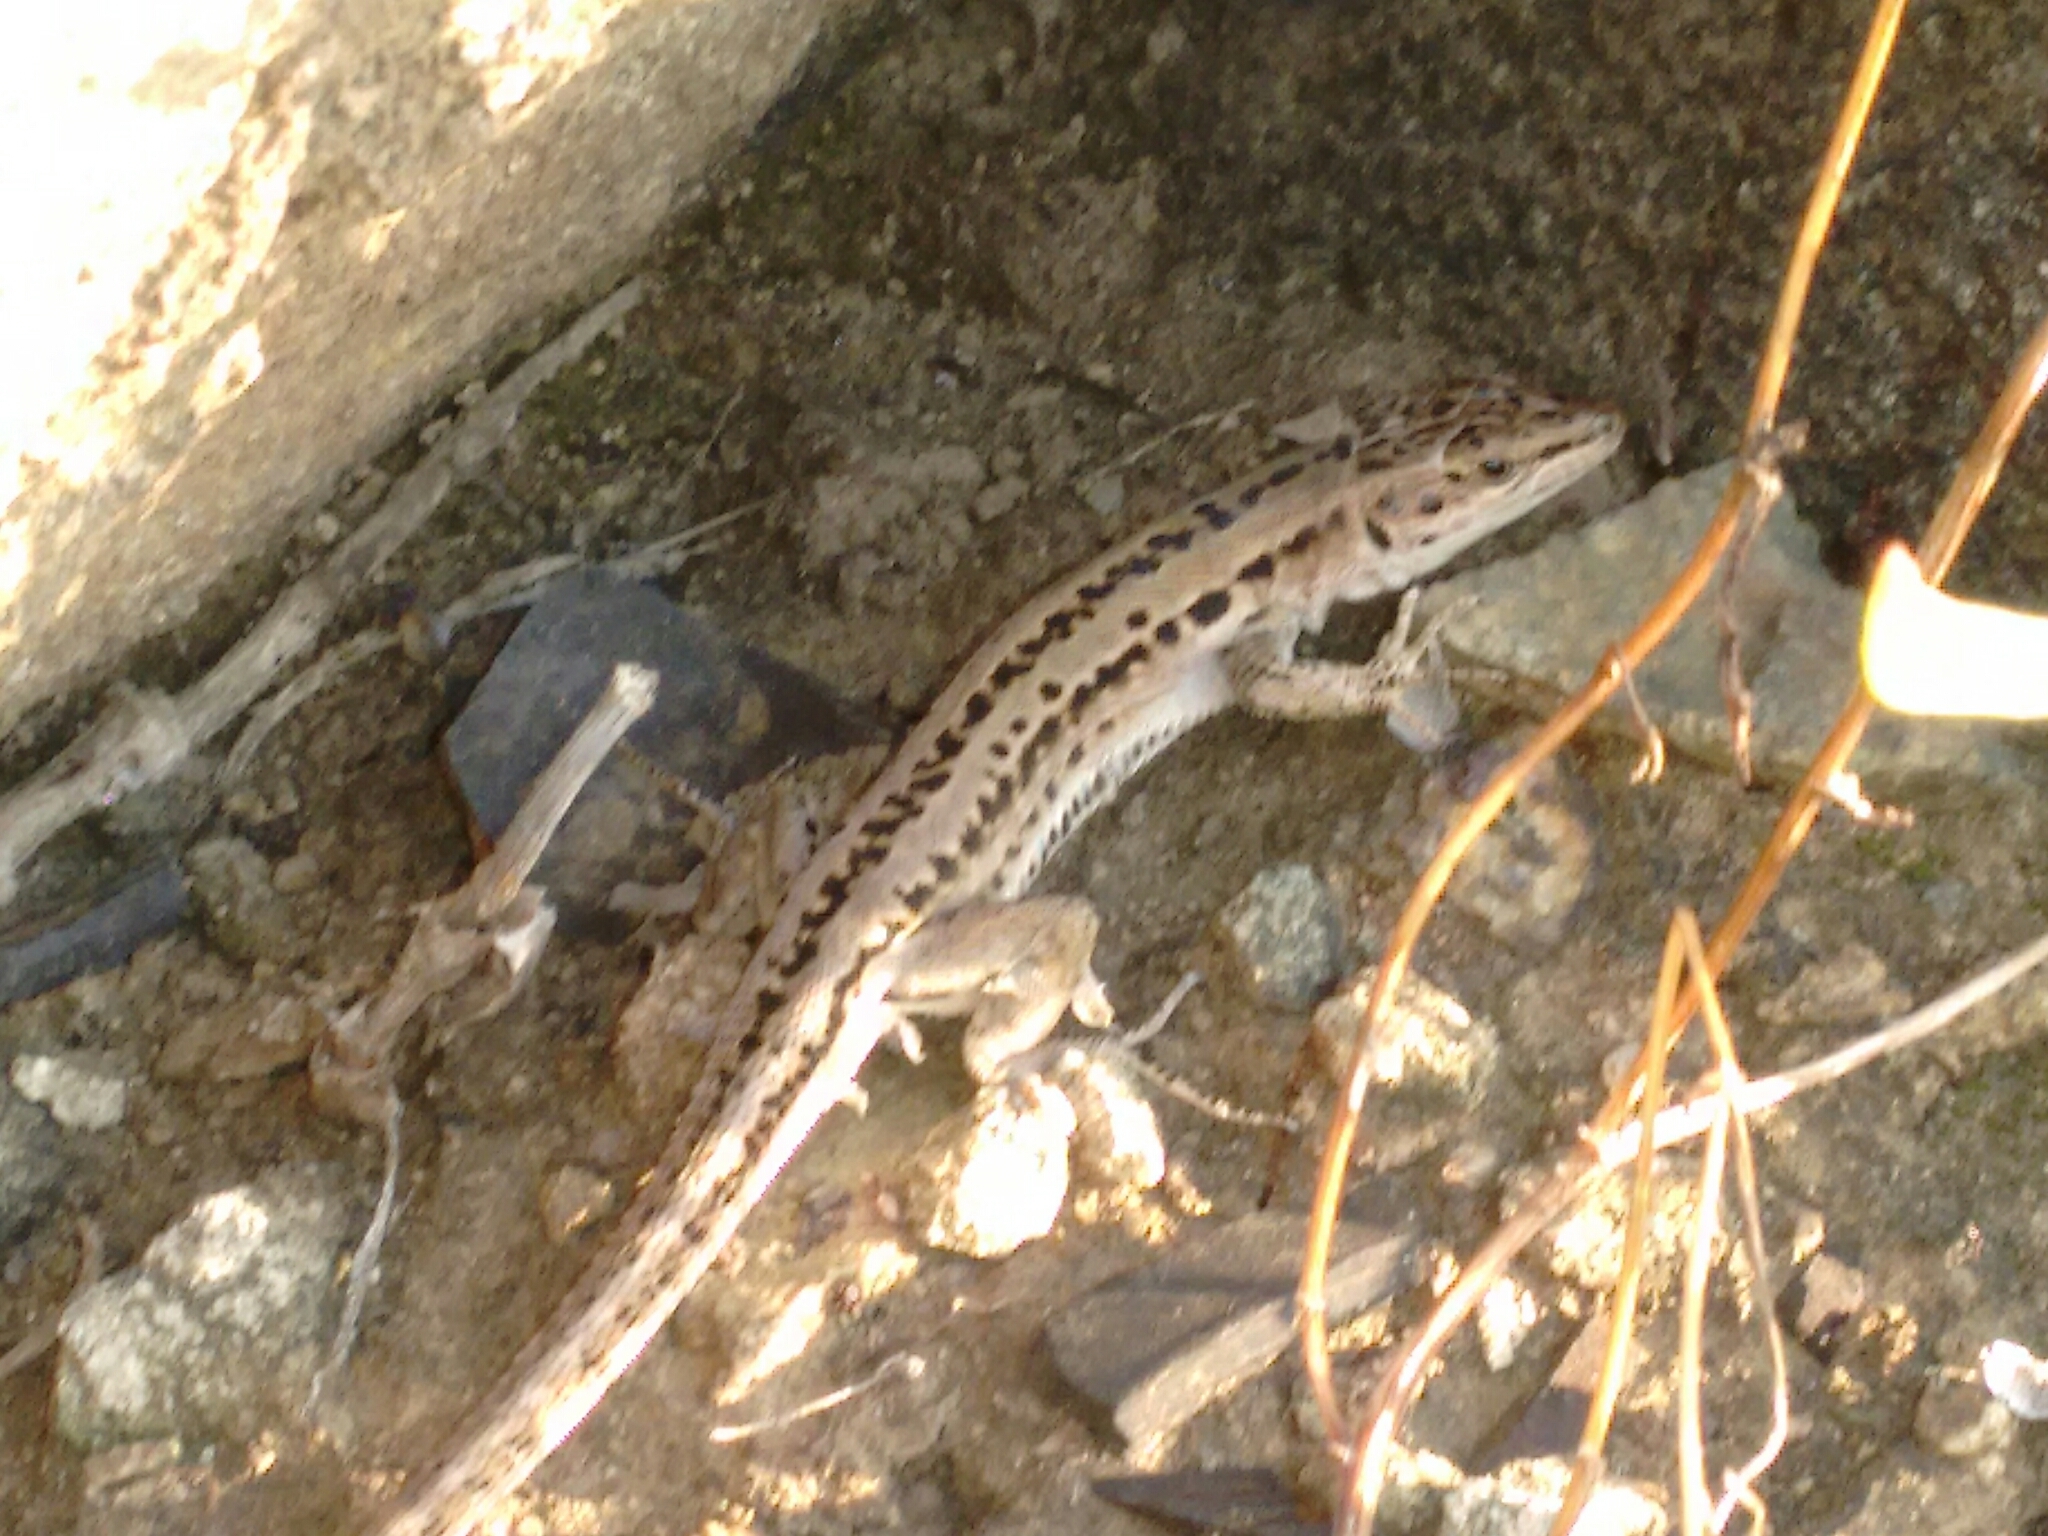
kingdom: Animalia
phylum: Chordata
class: Squamata
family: Lacertidae
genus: Podarcis
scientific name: Podarcis siculus
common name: Italian wall lizard
